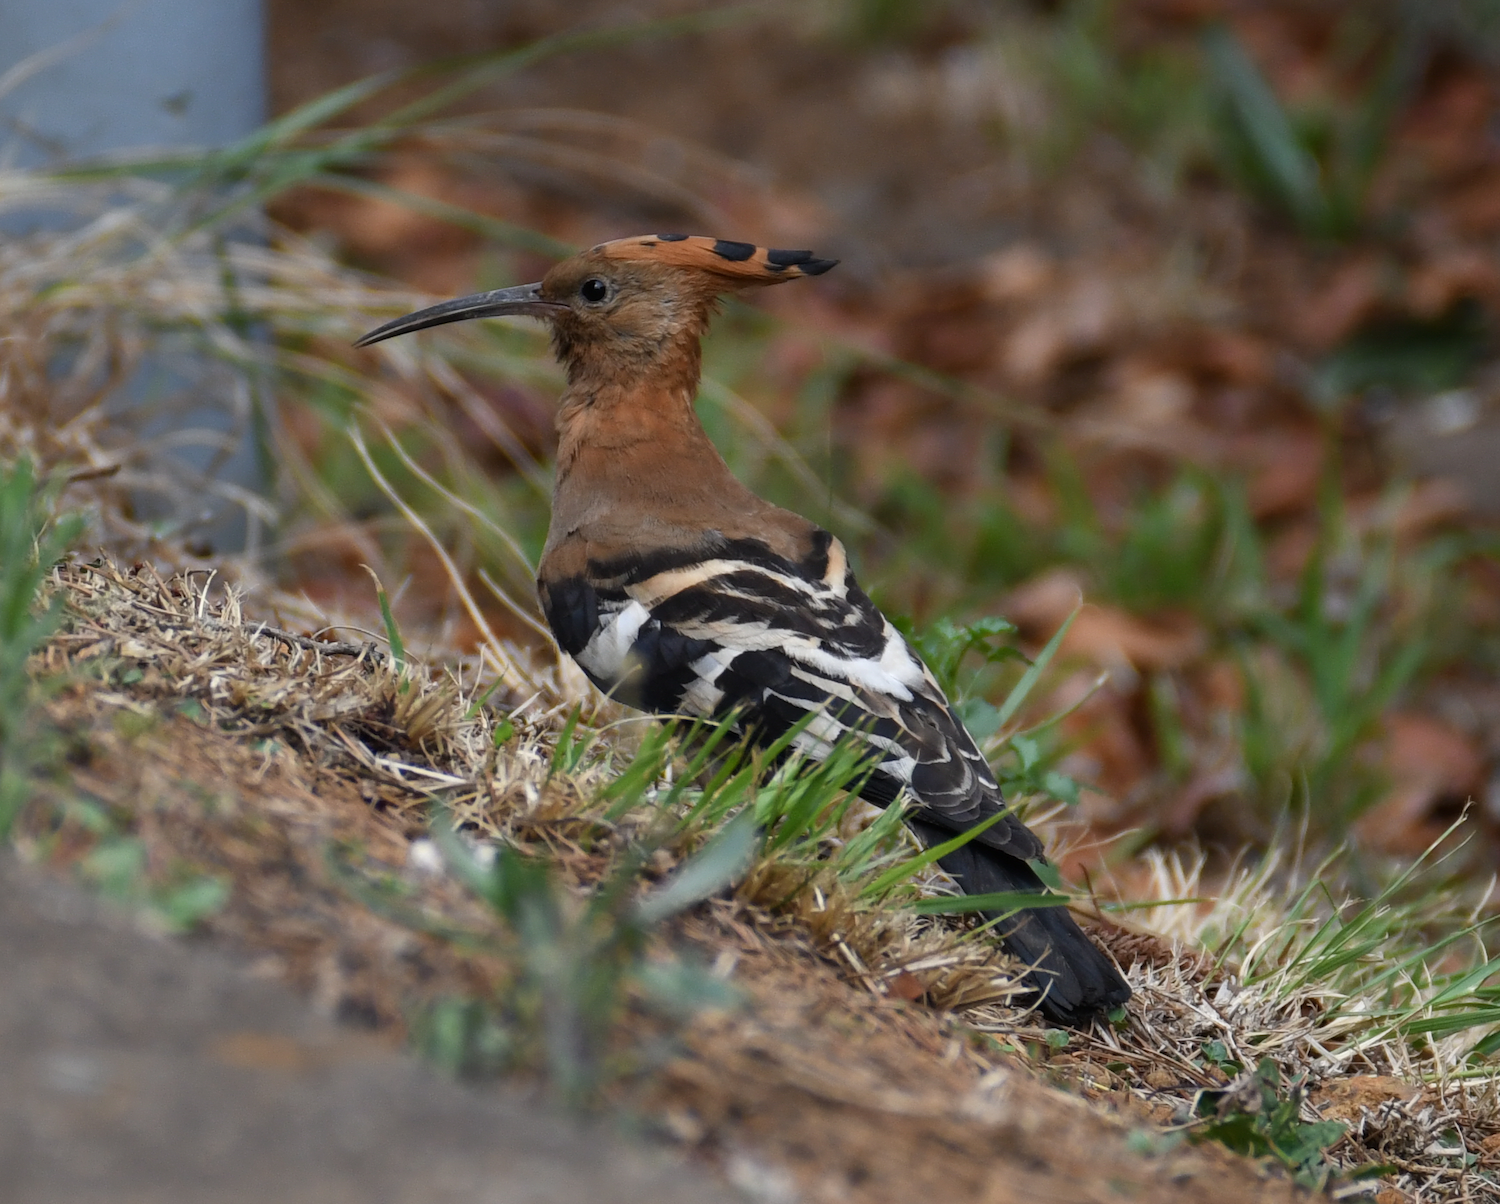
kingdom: Animalia
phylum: Chordata
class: Aves
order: Bucerotiformes
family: Upupidae
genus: Upupa
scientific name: Upupa africana
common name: African hoopoe
